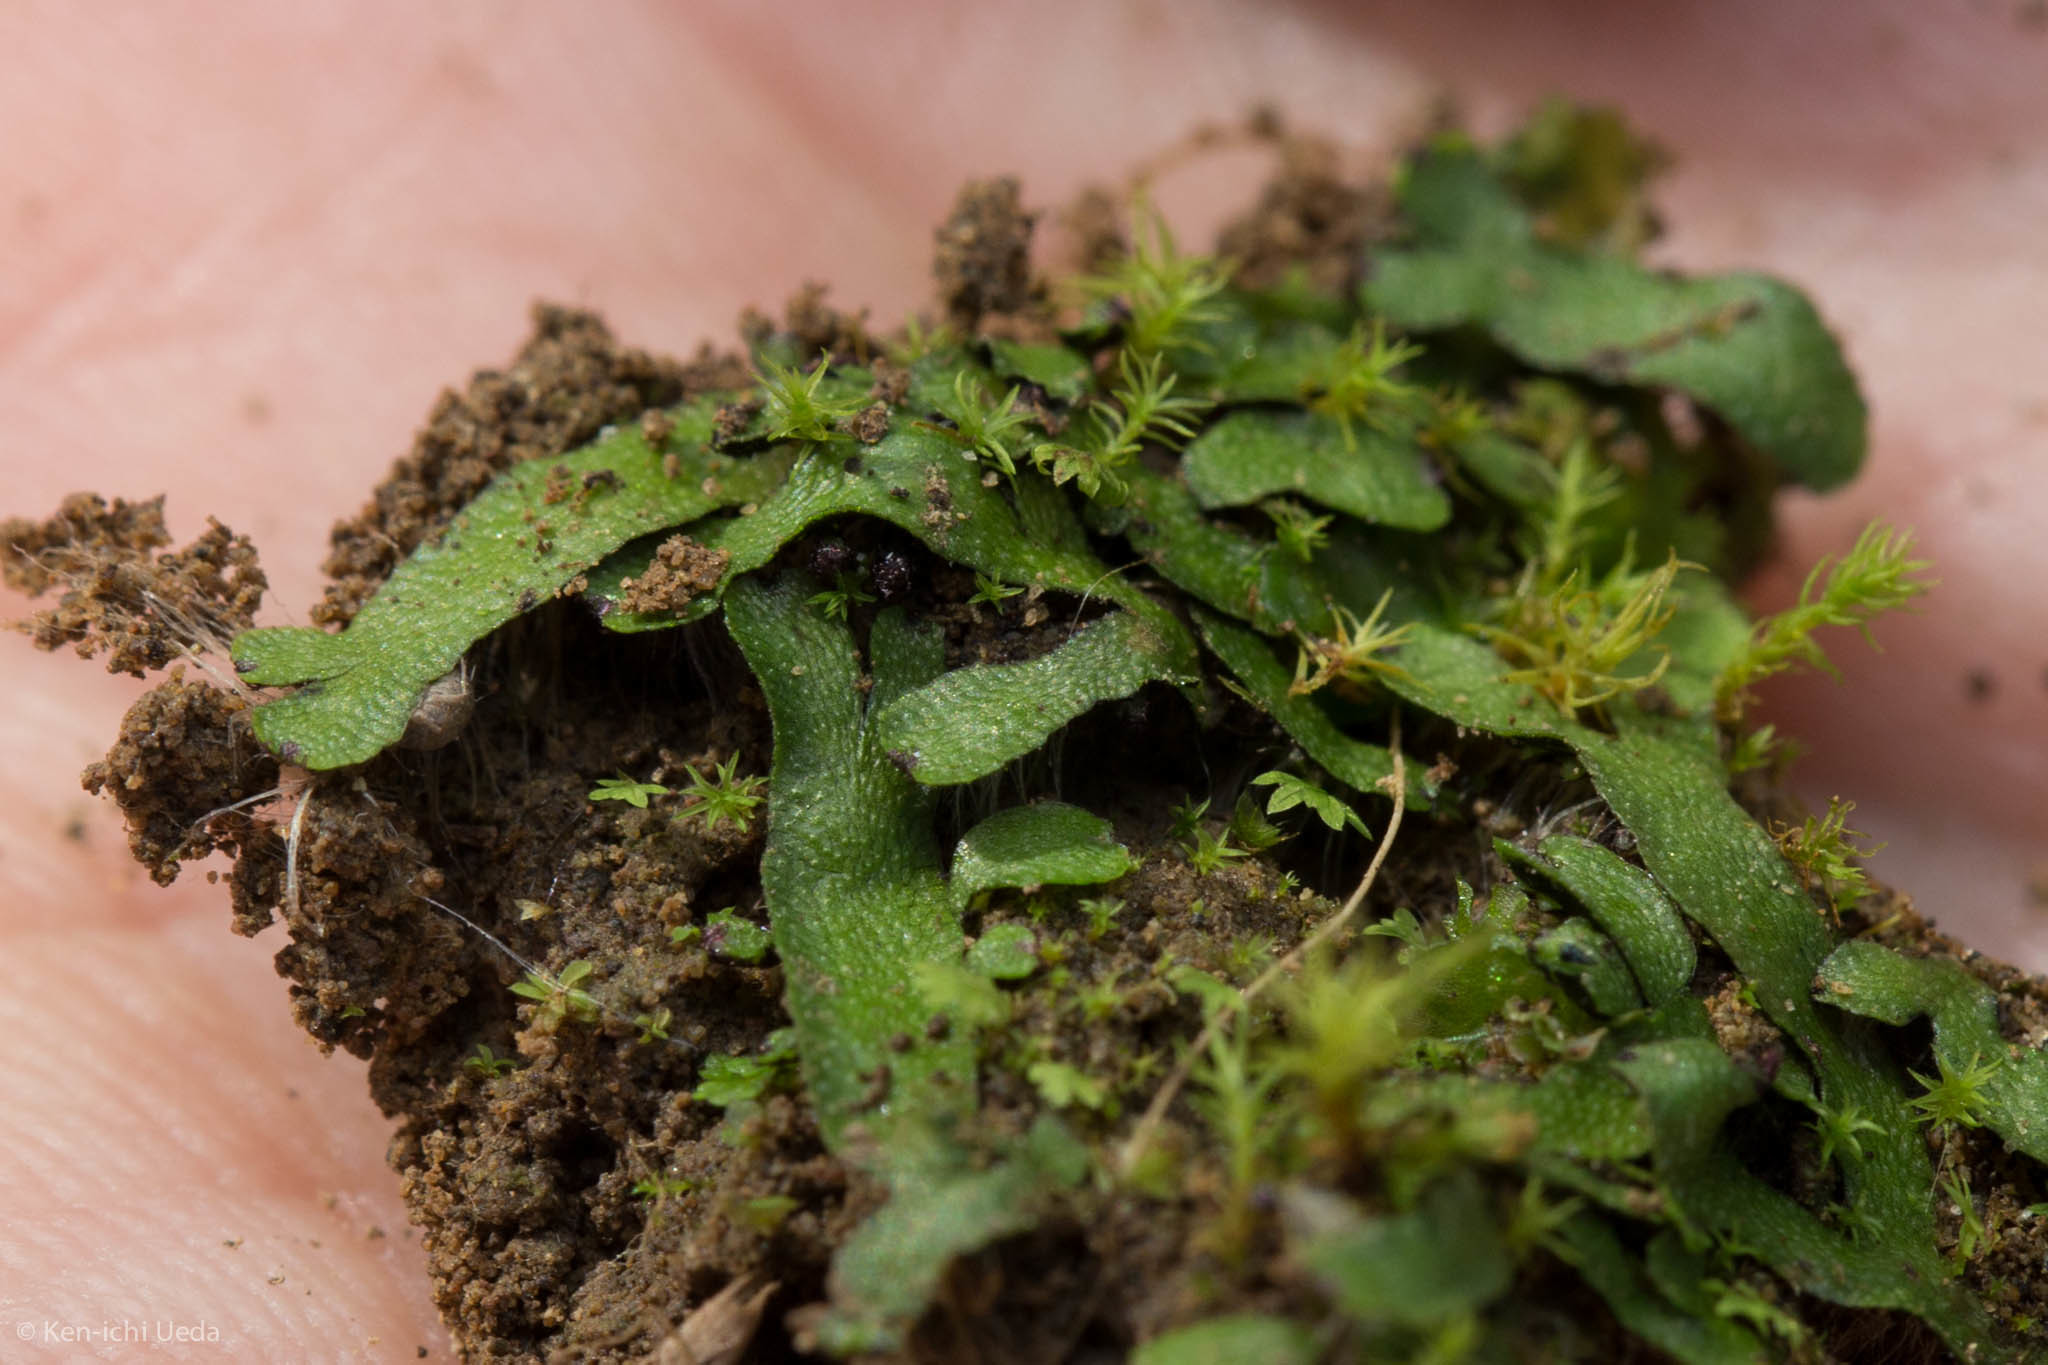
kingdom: Plantae
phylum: Marchantiophyta
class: Marchantiopsida
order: Marchantiales
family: Targioniaceae
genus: Targionia
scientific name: Targionia hypophylla
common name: Orobus-seed liverwort
